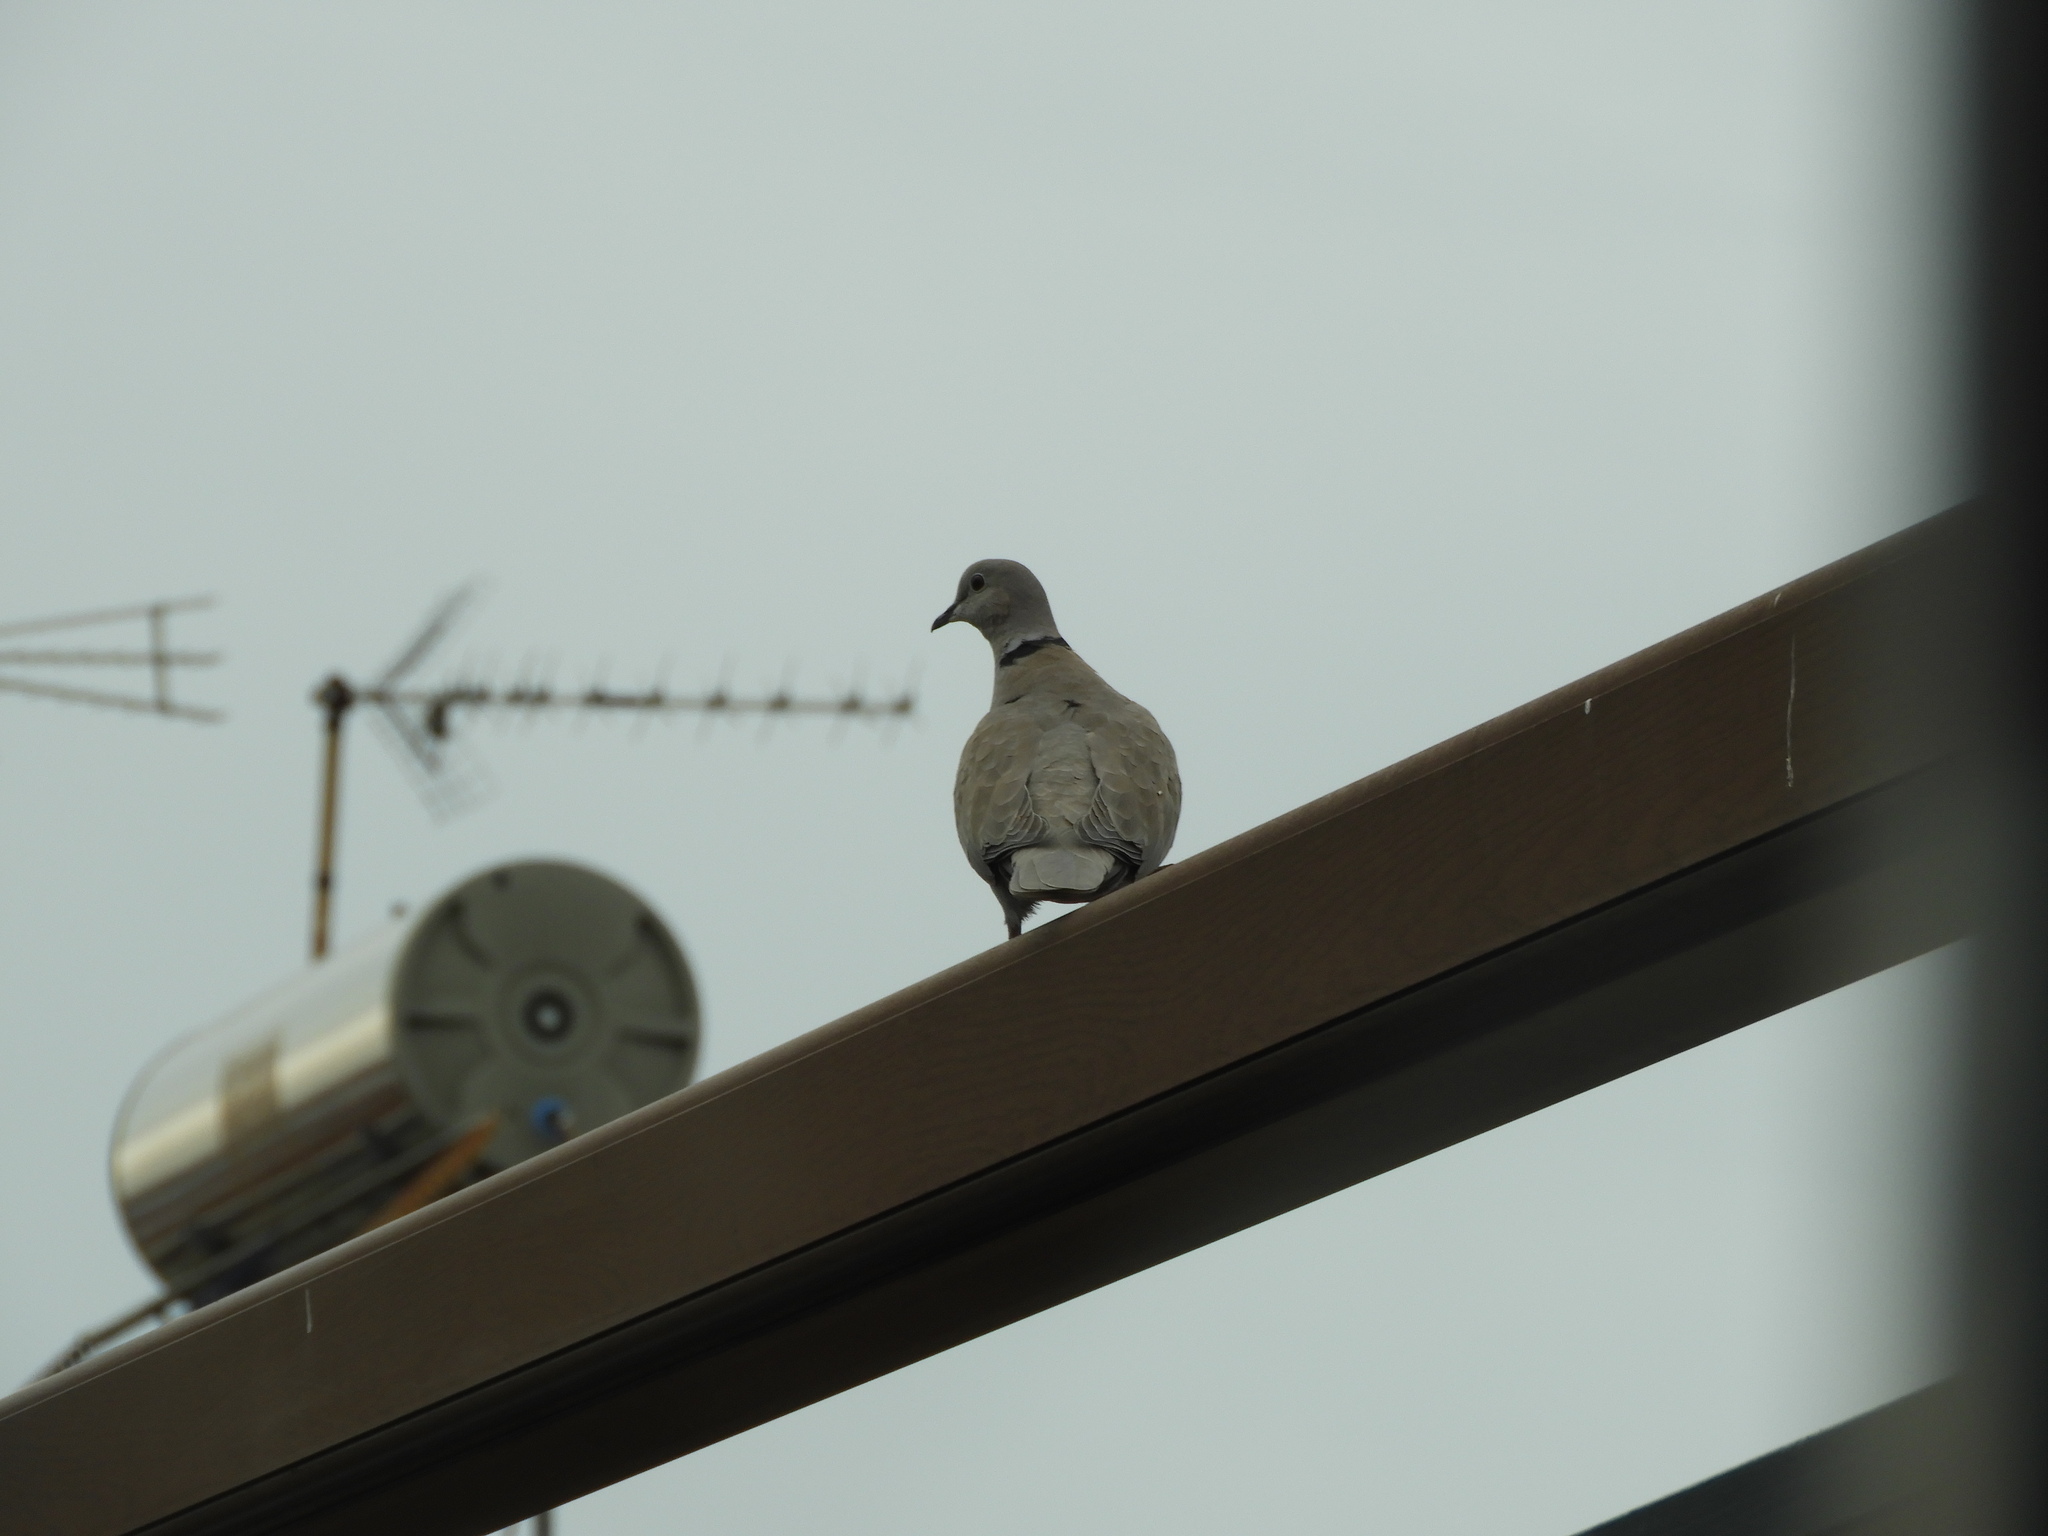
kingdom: Animalia
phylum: Chordata
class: Aves
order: Columbiformes
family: Columbidae
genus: Streptopelia
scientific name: Streptopelia decaocto
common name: Eurasian collared dove
